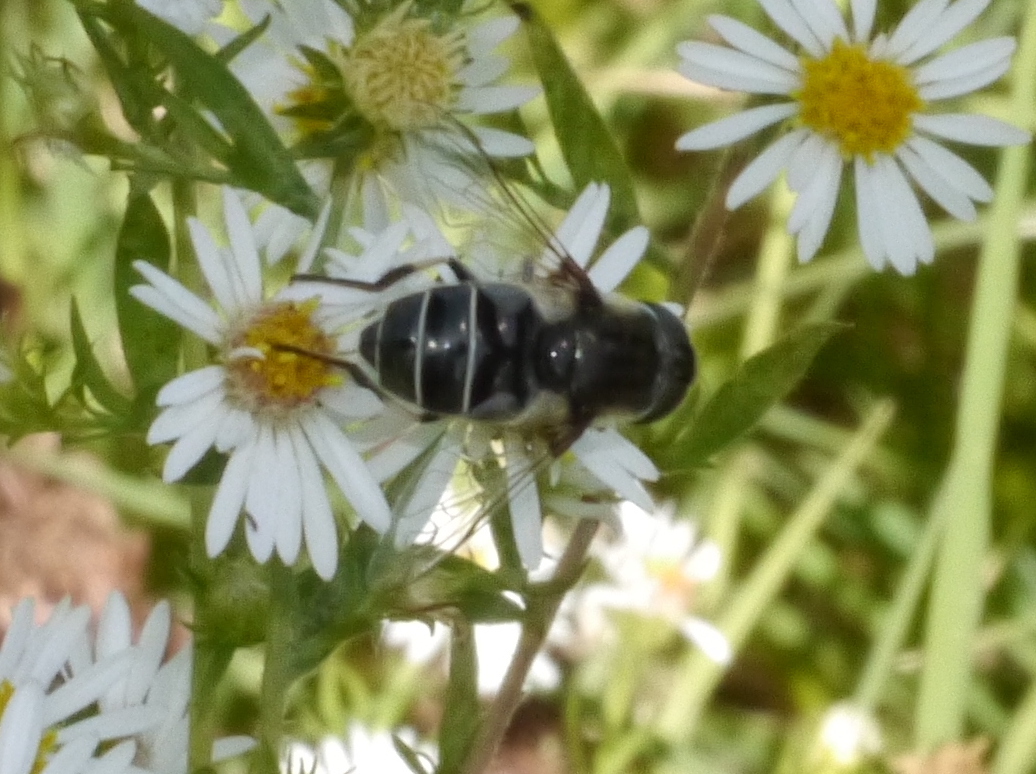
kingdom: Animalia
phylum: Arthropoda
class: Insecta
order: Diptera
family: Syrphidae
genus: Eristalis
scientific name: Eristalis dimidiata
